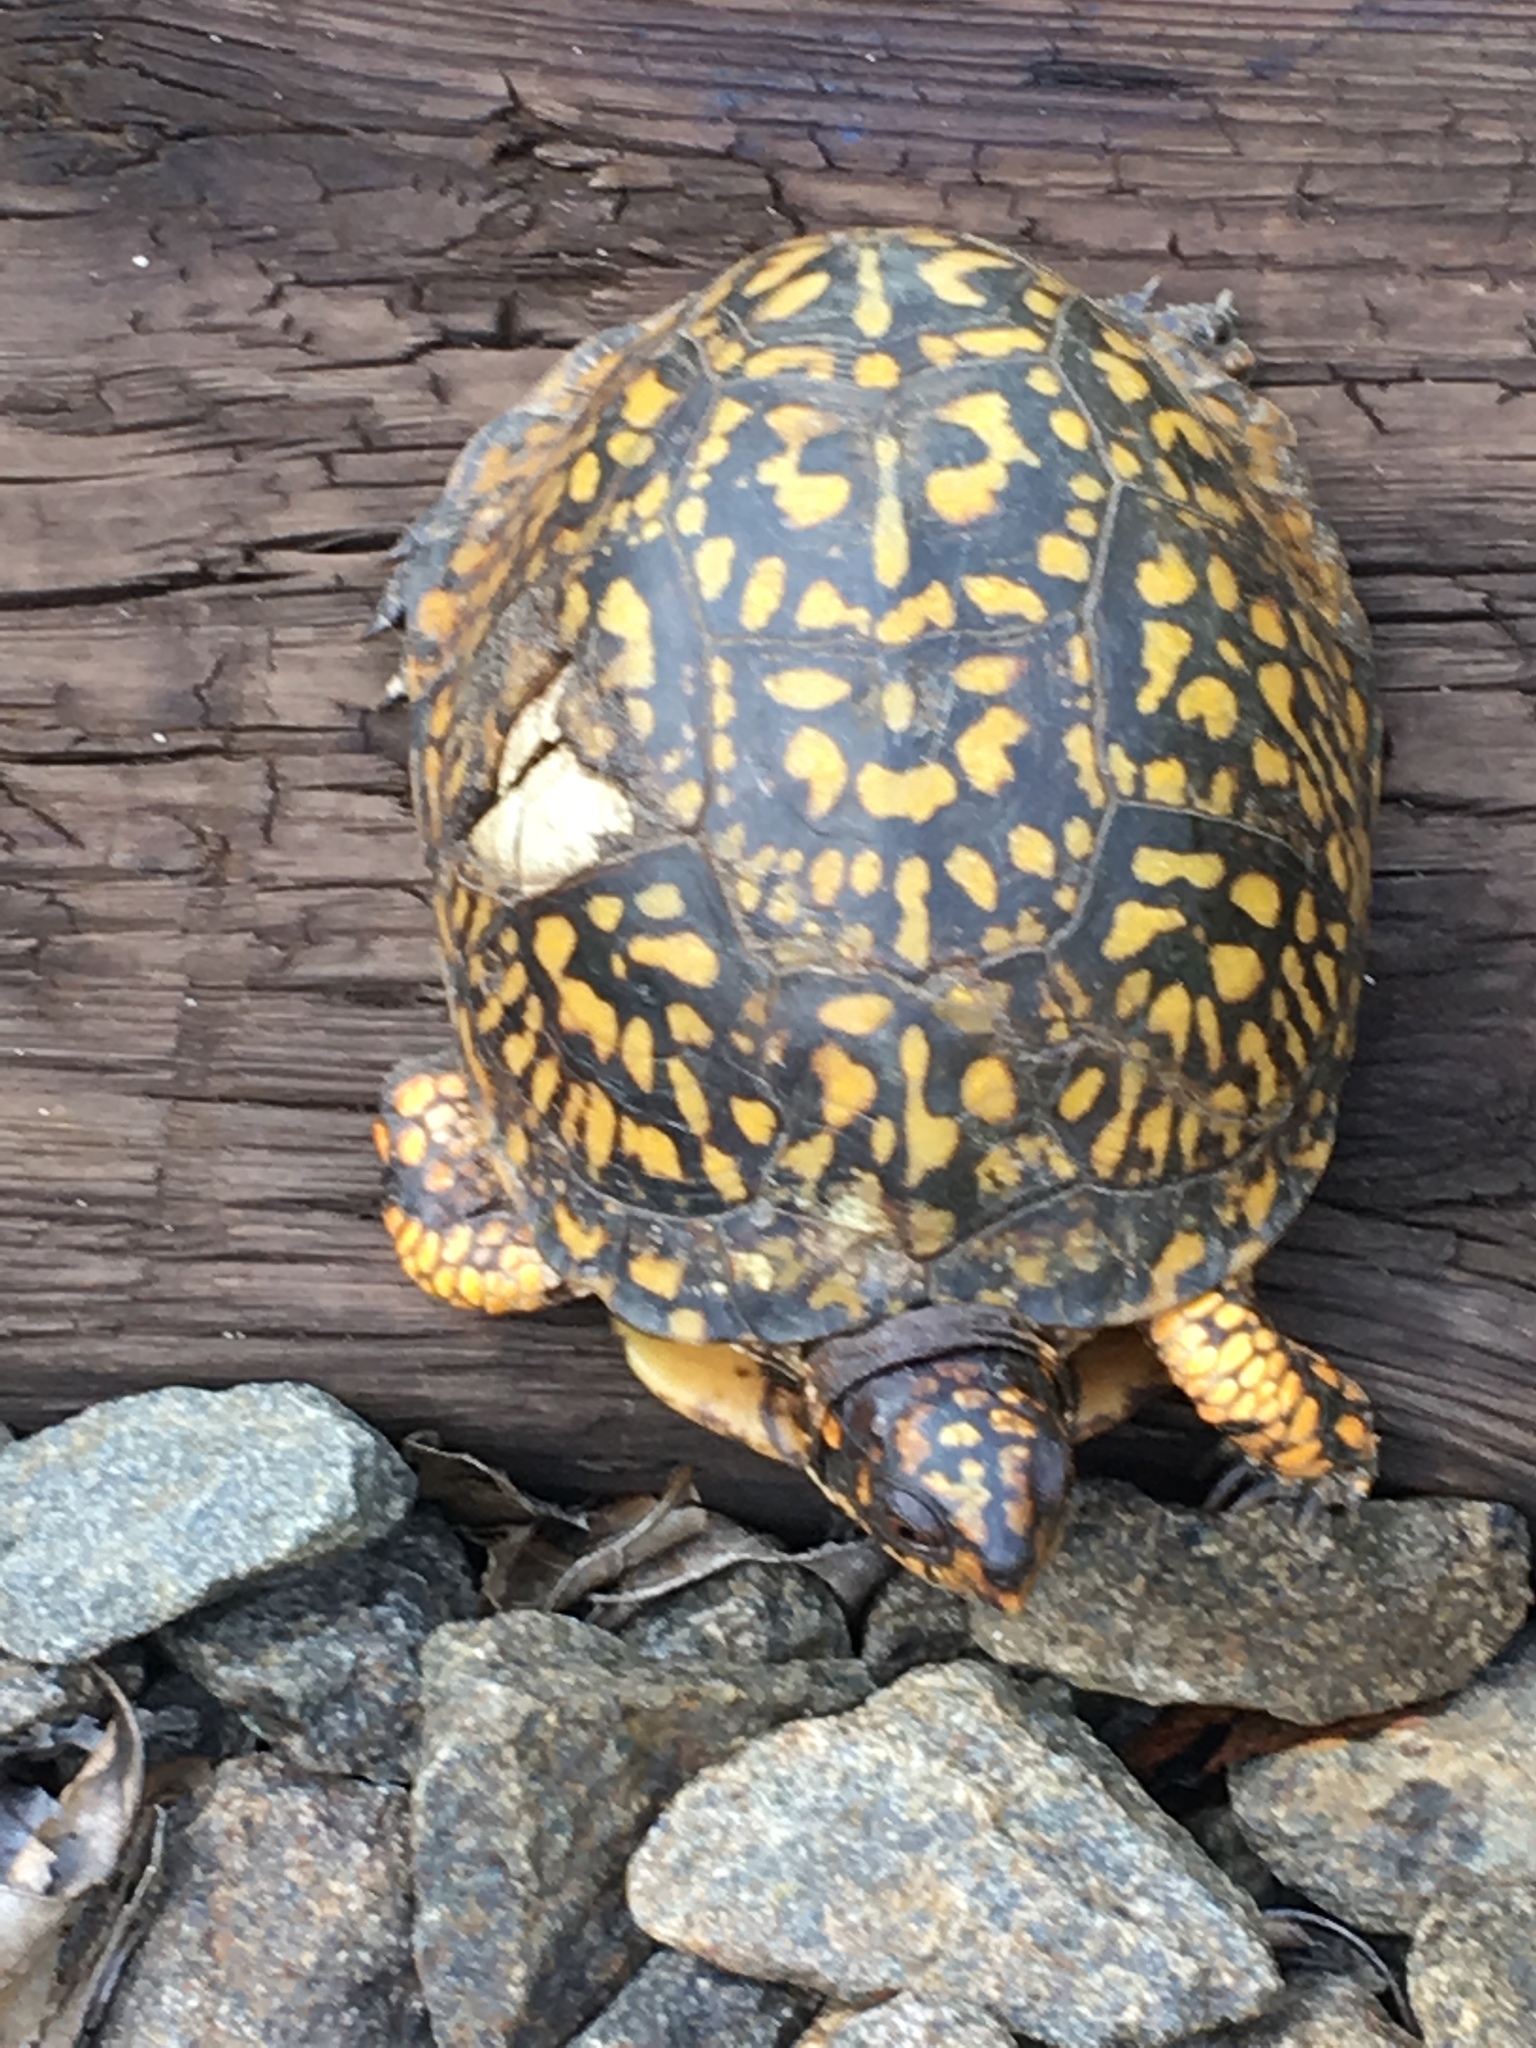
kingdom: Animalia
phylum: Chordata
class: Testudines
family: Emydidae
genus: Terrapene
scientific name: Terrapene carolina
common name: Common box turtle
